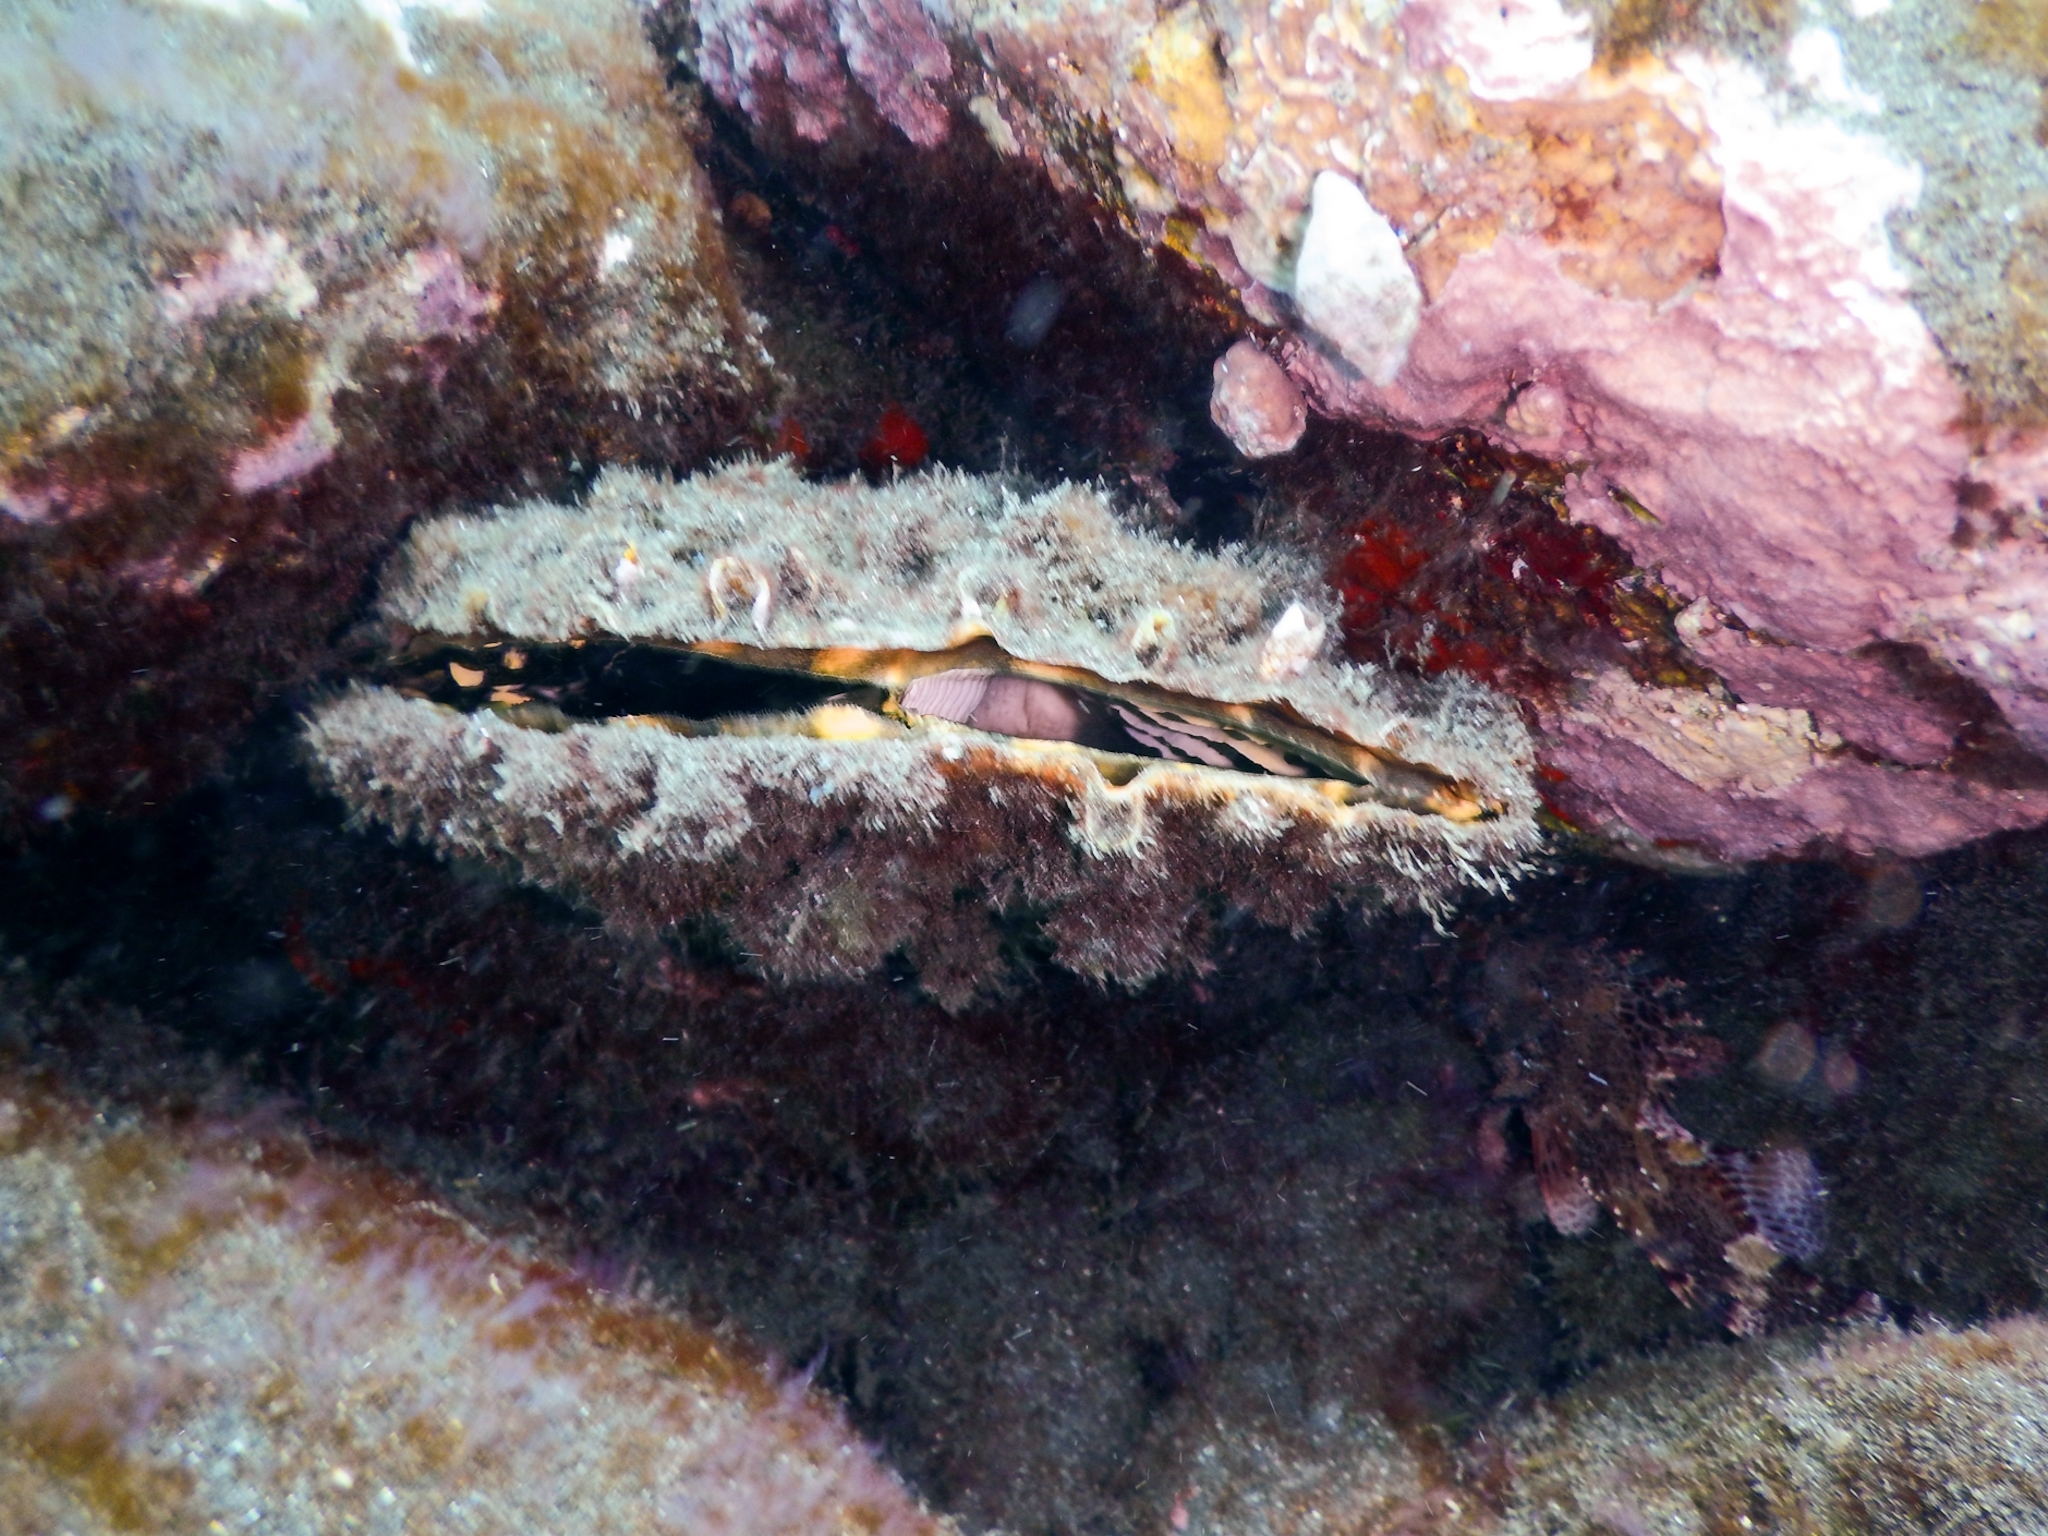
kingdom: Animalia
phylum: Mollusca
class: Bivalvia
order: Ostreida
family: Pinnidae
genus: Pinna
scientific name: Pinna rudis
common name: Rough penshell
